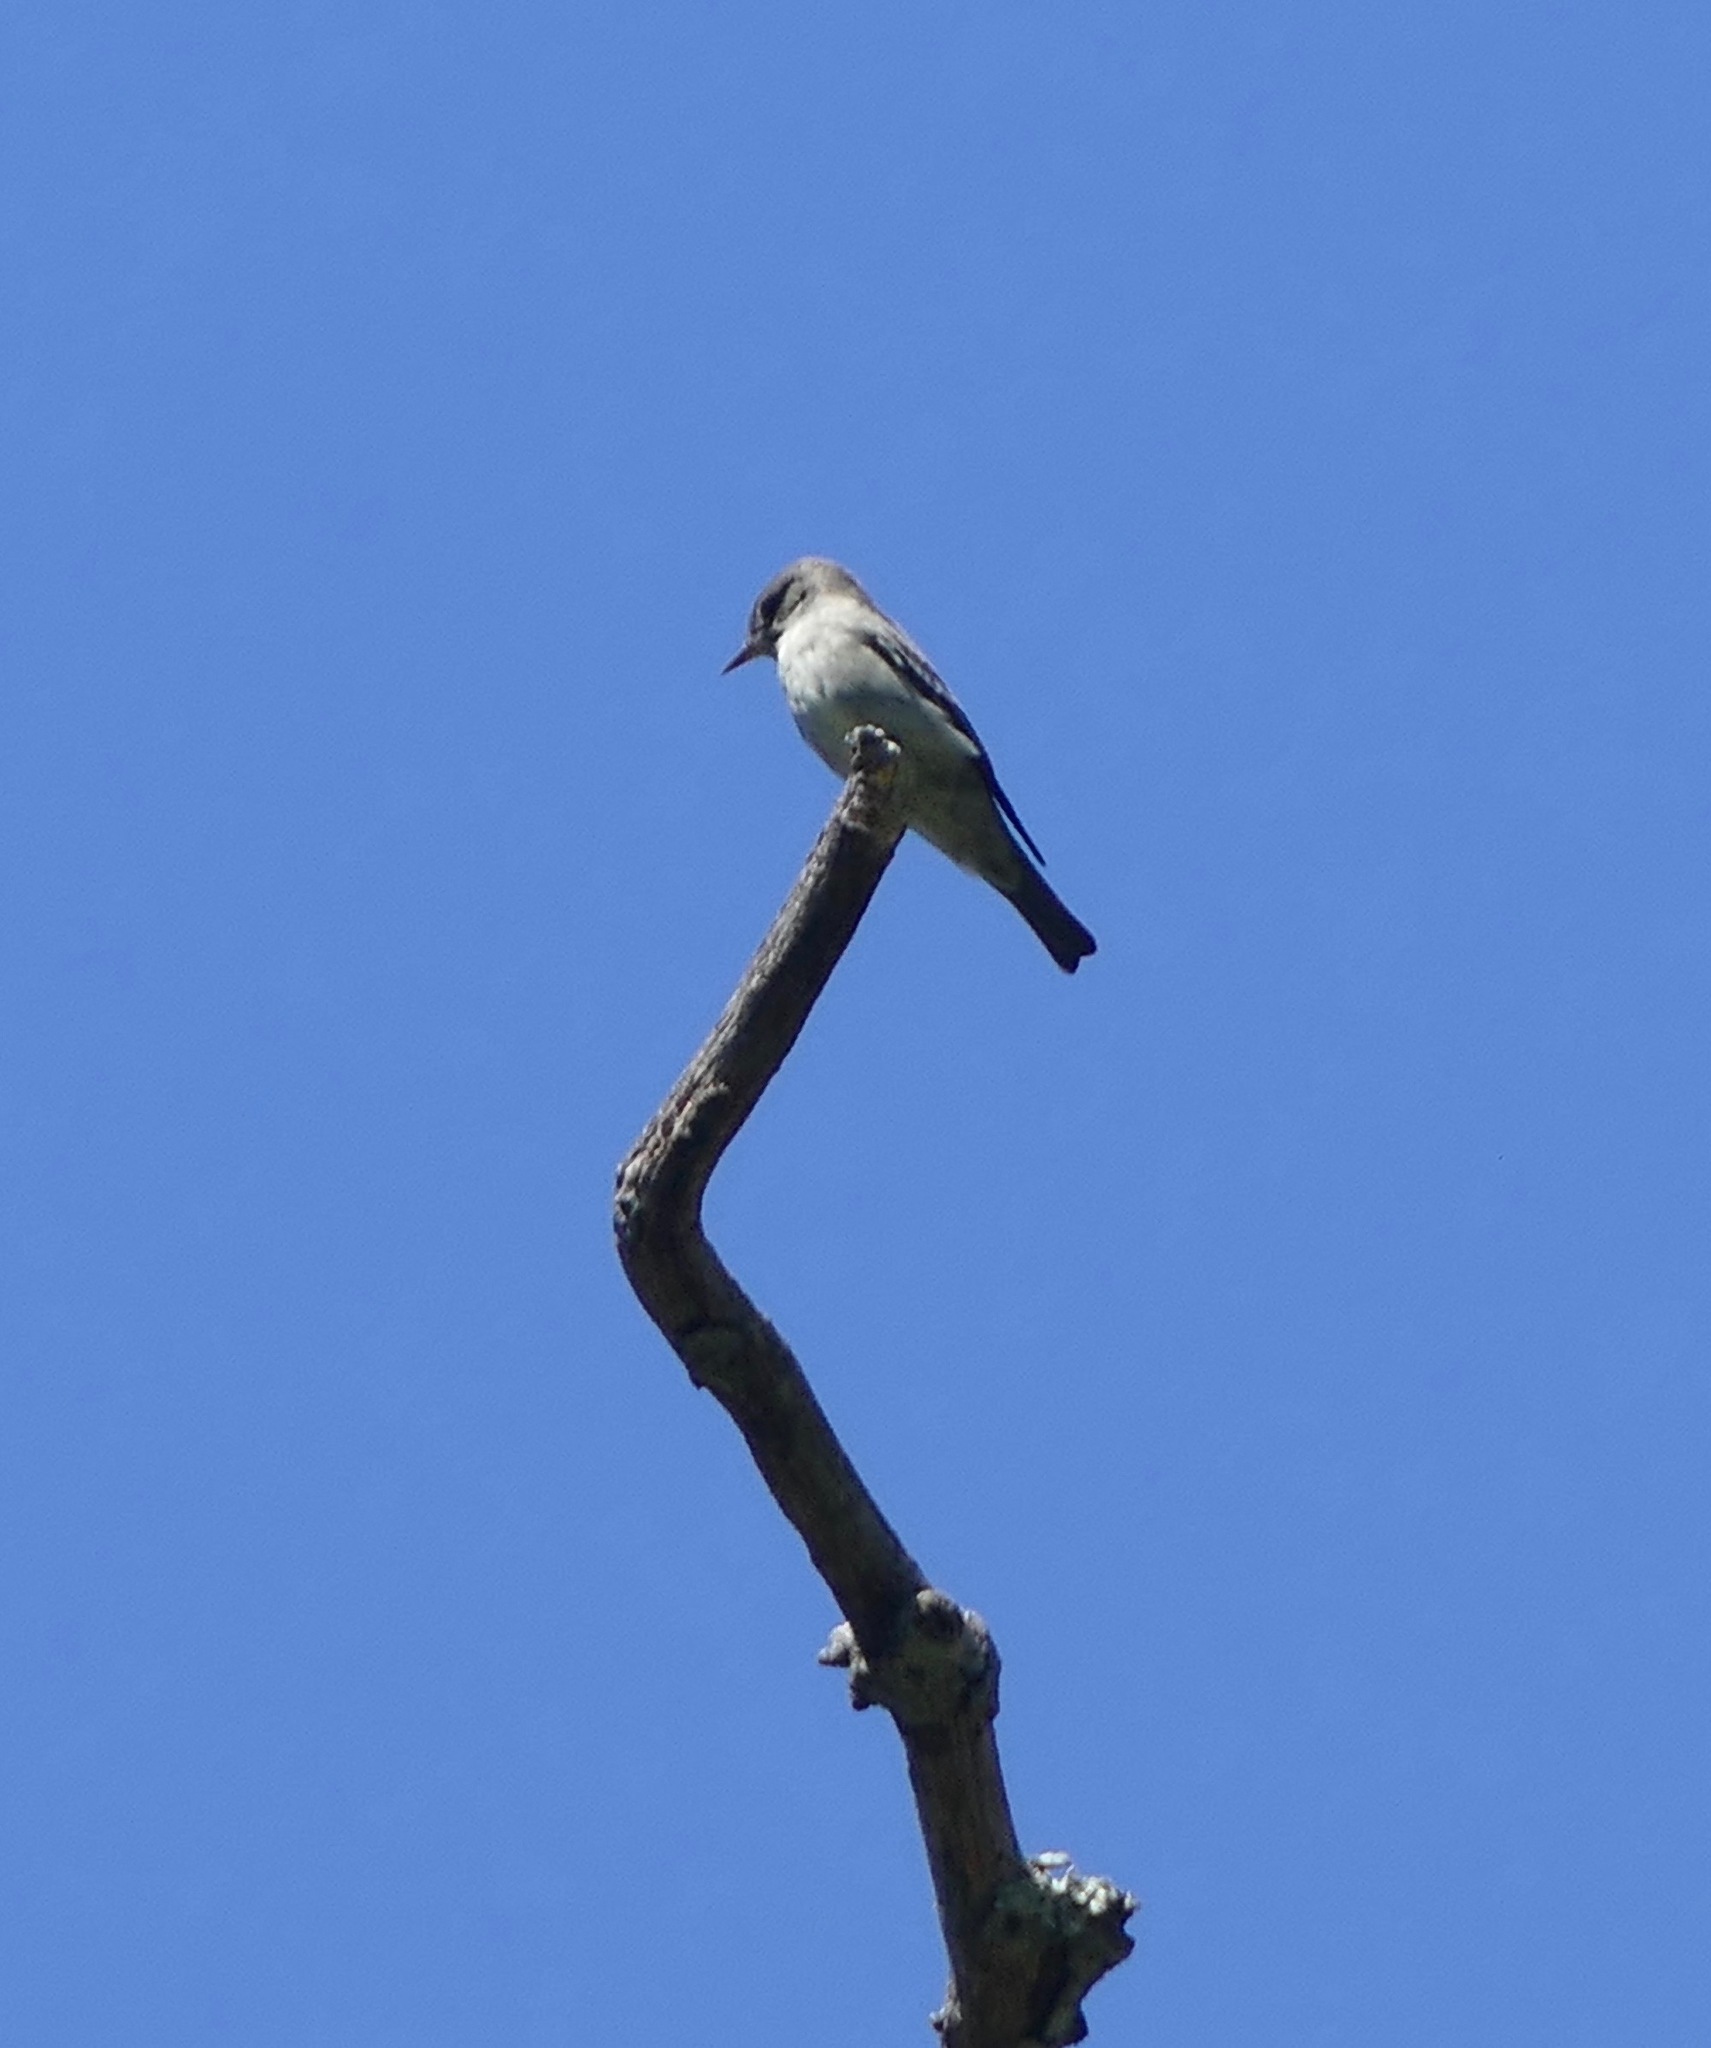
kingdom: Animalia
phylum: Chordata
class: Aves
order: Passeriformes
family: Tyrannidae
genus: Contopus
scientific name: Contopus sordidulus
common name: Western wood-pewee
